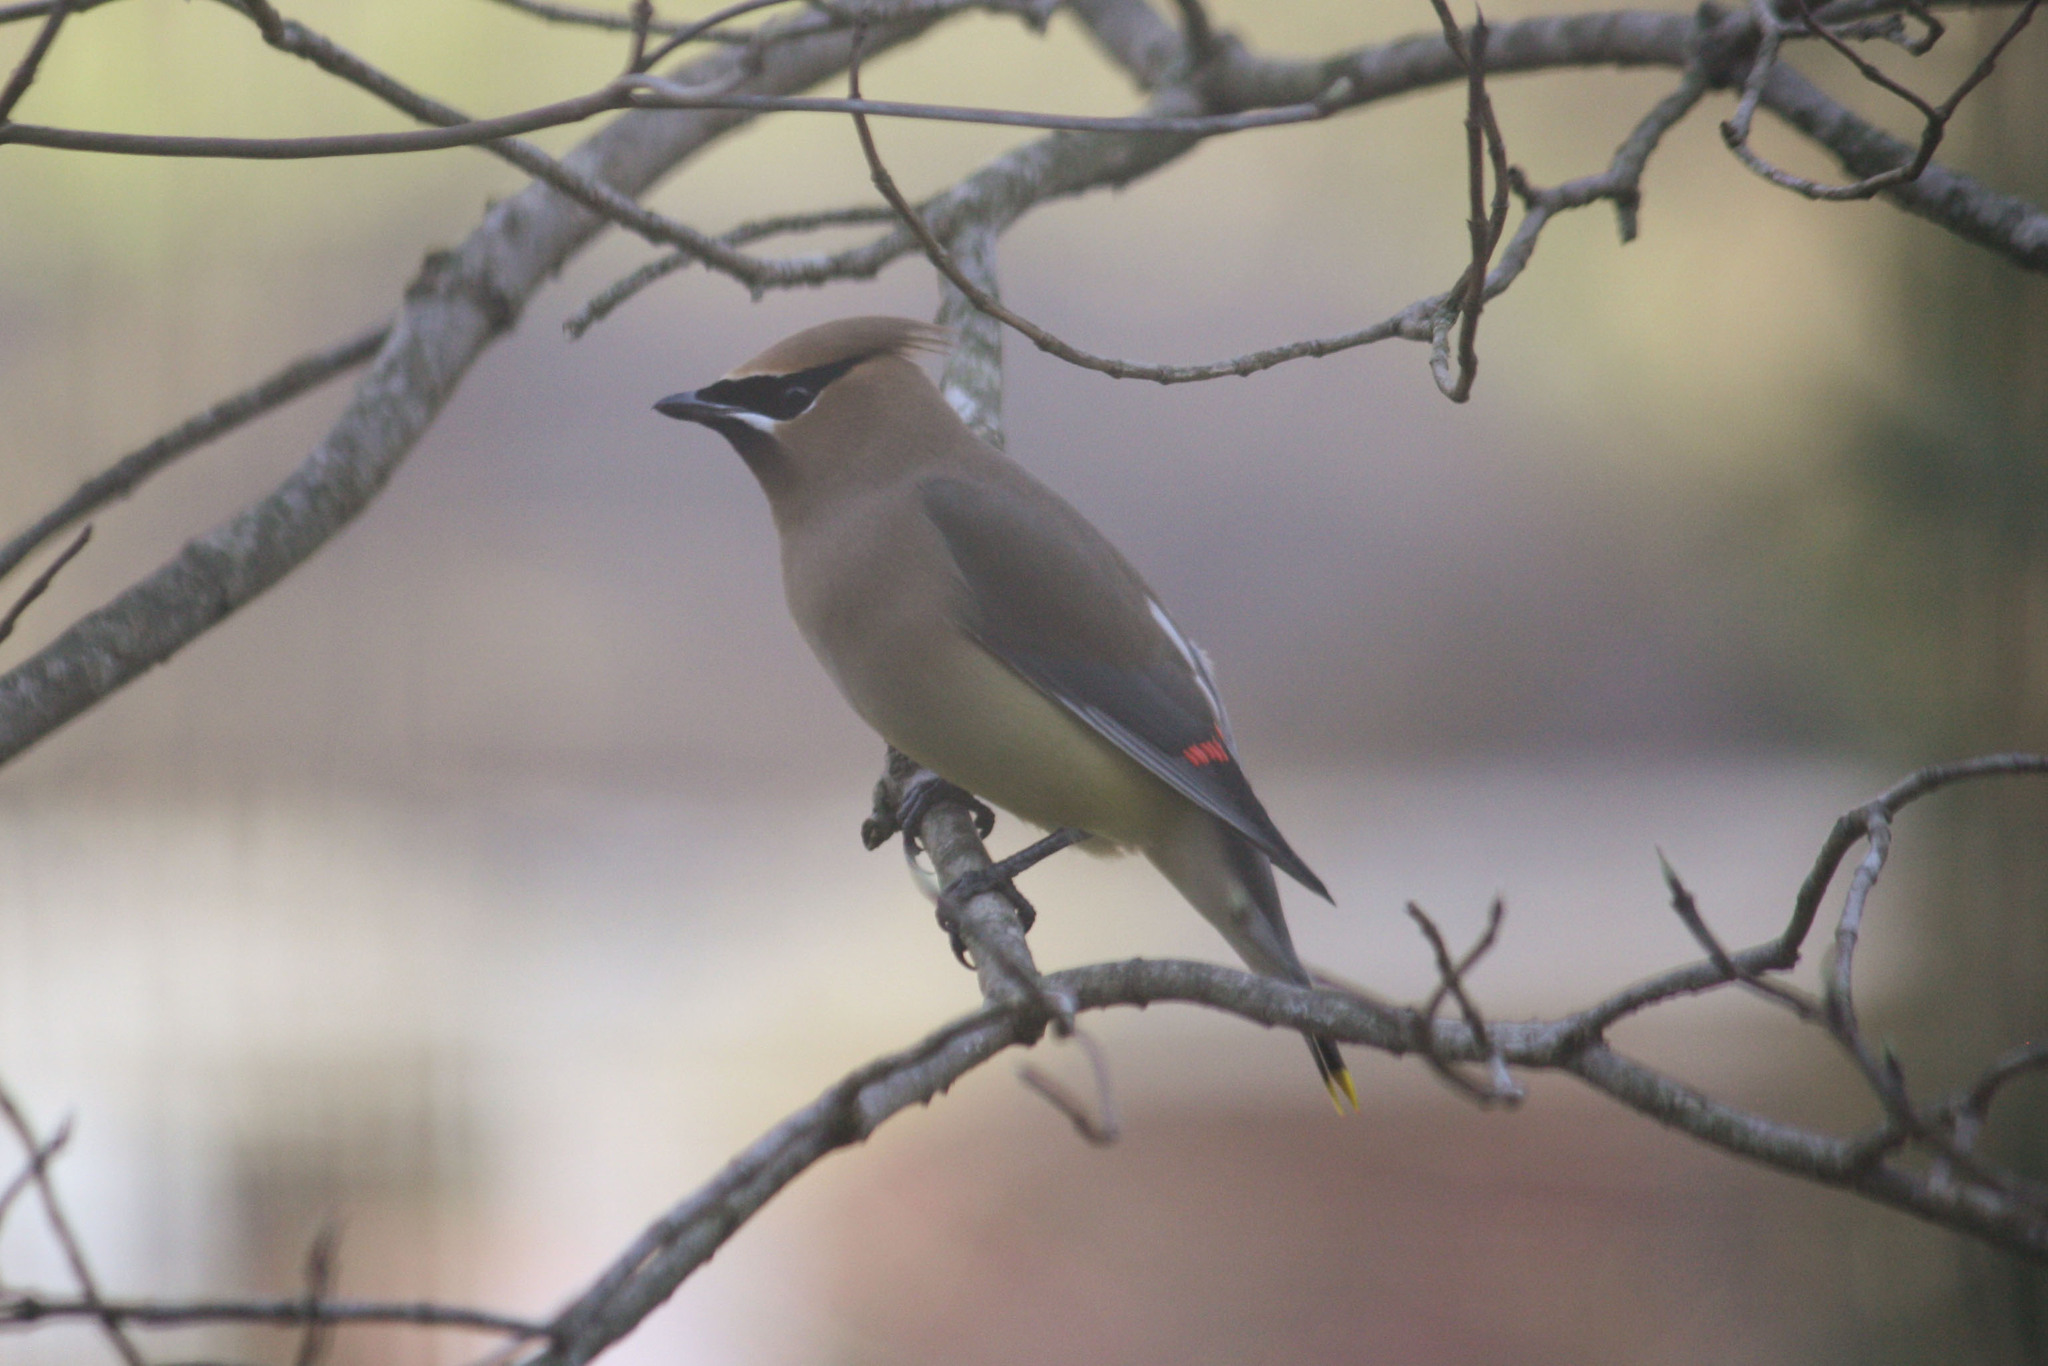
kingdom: Animalia
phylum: Chordata
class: Aves
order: Passeriformes
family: Bombycillidae
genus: Bombycilla
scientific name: Bombycilla cedrorum
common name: Cedar waxwing
